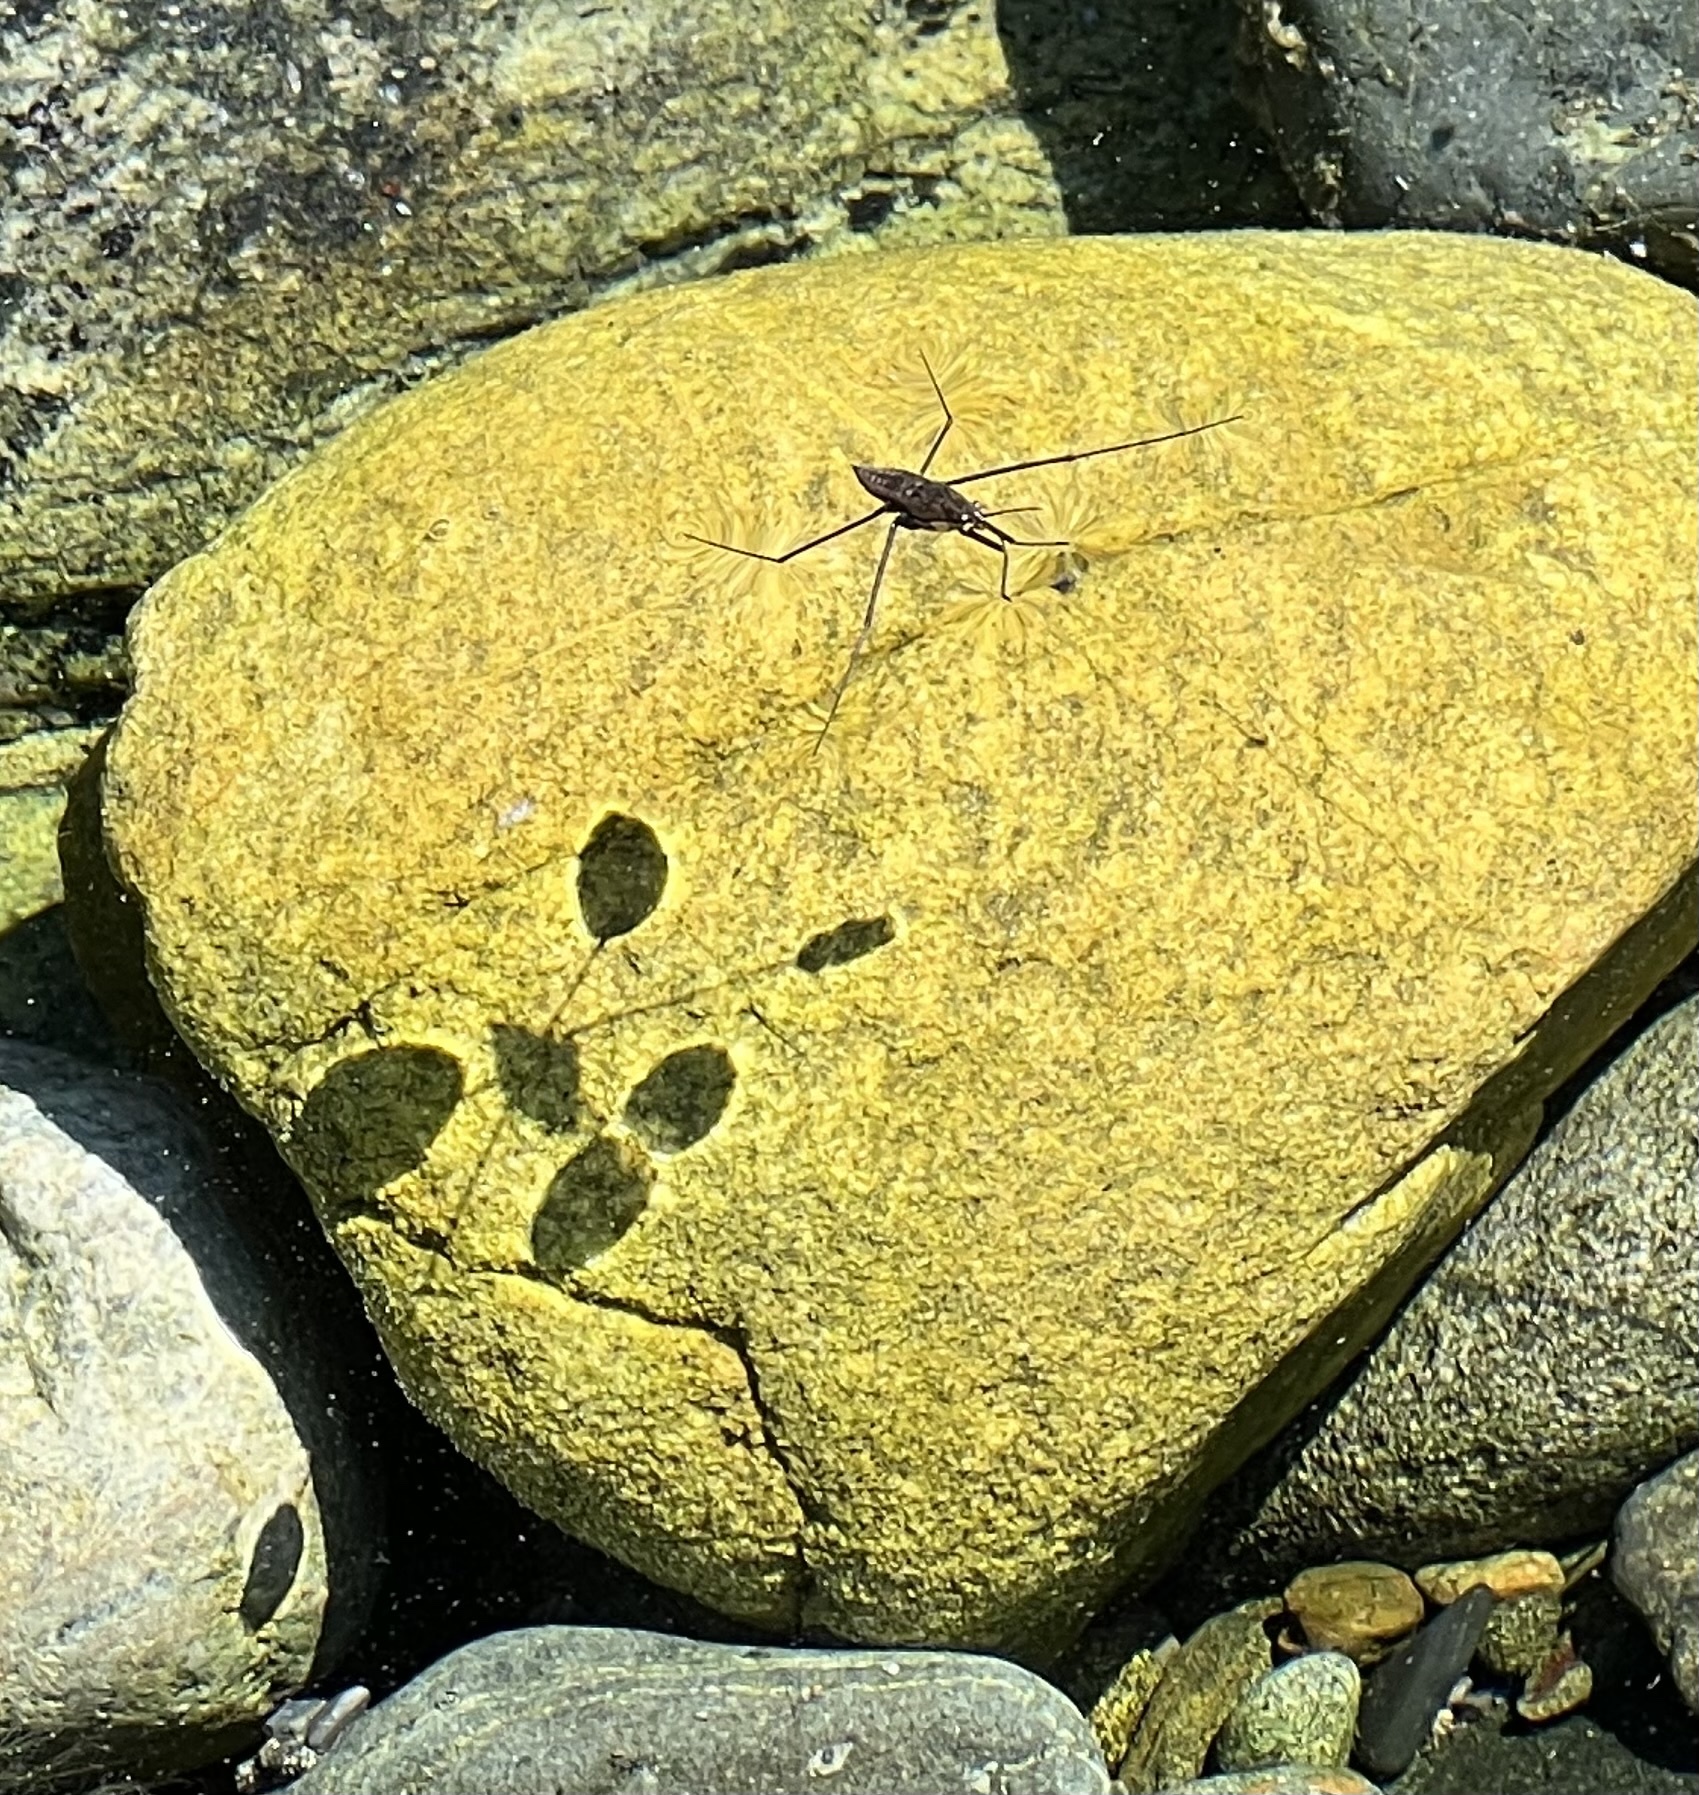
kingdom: Animalia
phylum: Arthropoda
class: Insecta
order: Hemiptera
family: Gerridae
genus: Aquarius
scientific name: Aquarius remigis
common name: Common water strider
